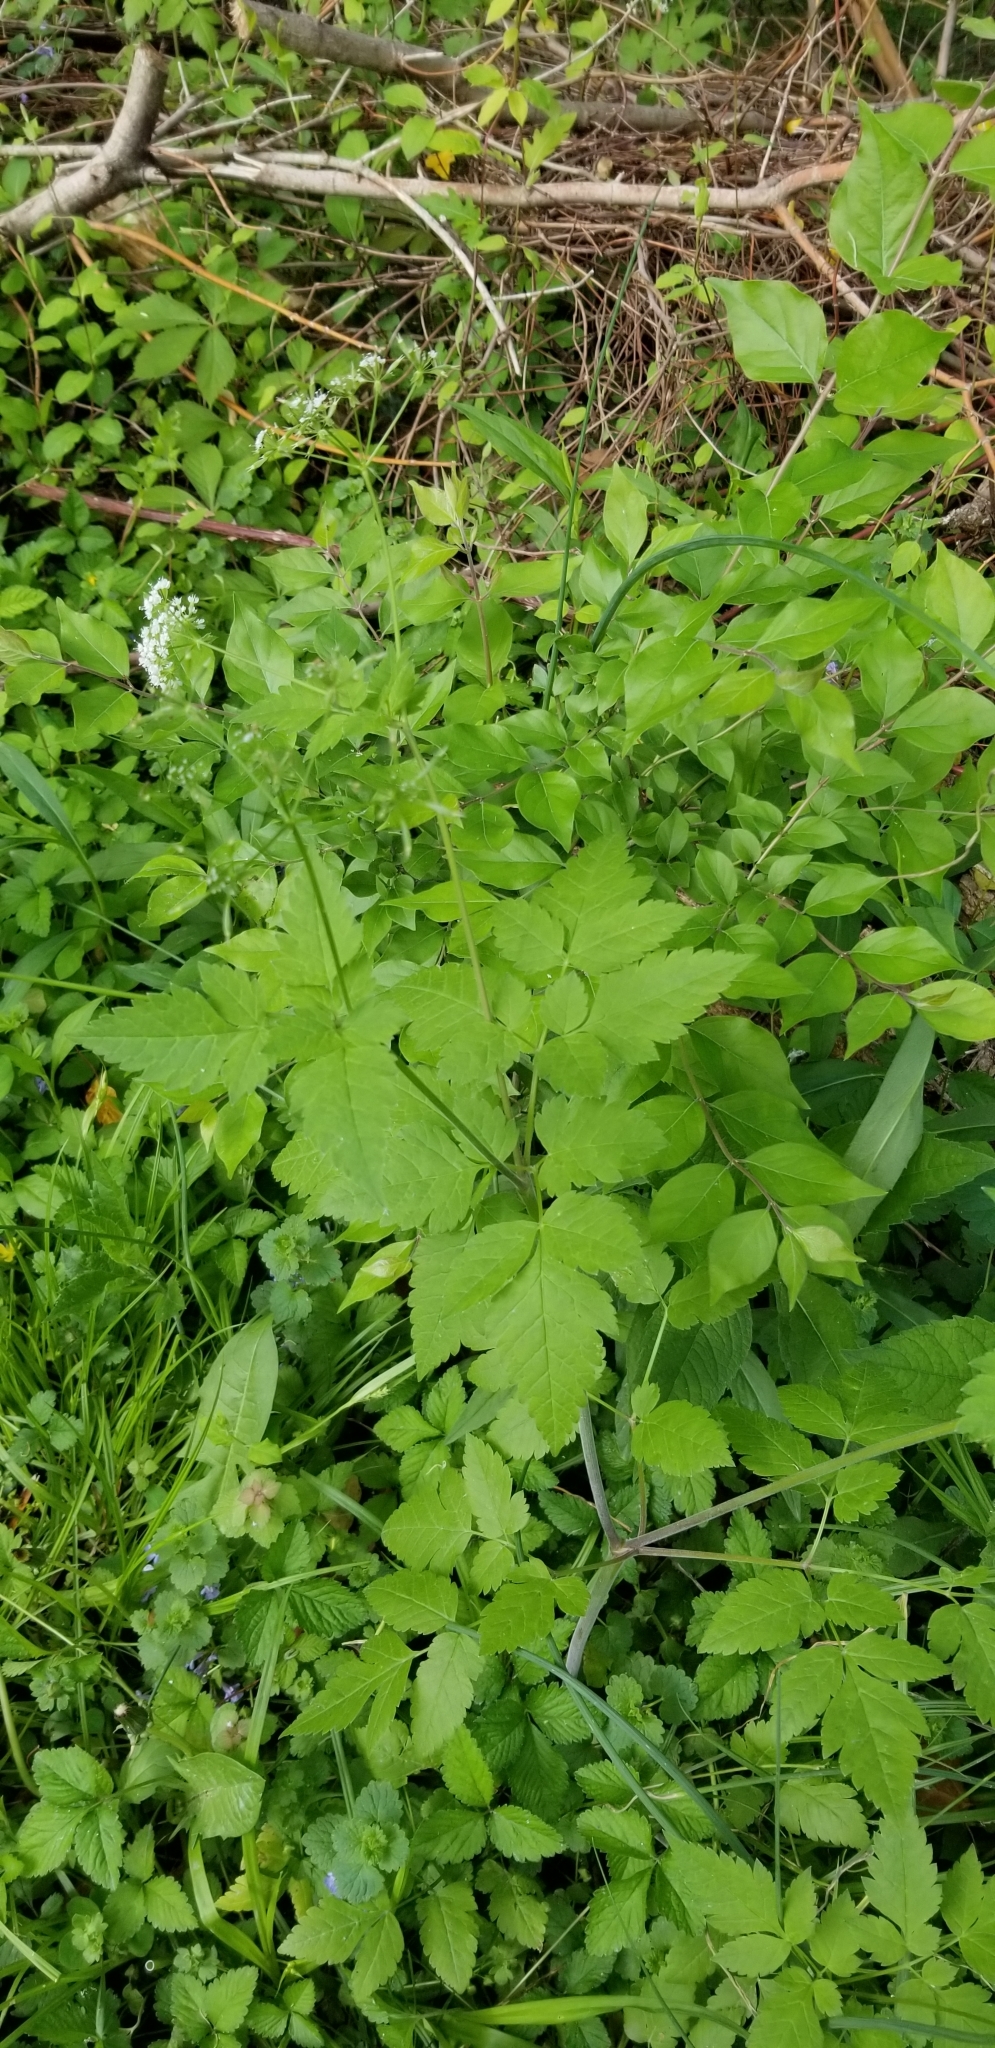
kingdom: Plantae
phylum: Tracheophyta
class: Magnoliopsida
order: Apiales
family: Apiaceae
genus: Osmorhiza
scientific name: Osmorhiza longistylis
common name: Smooth sweet cicely
